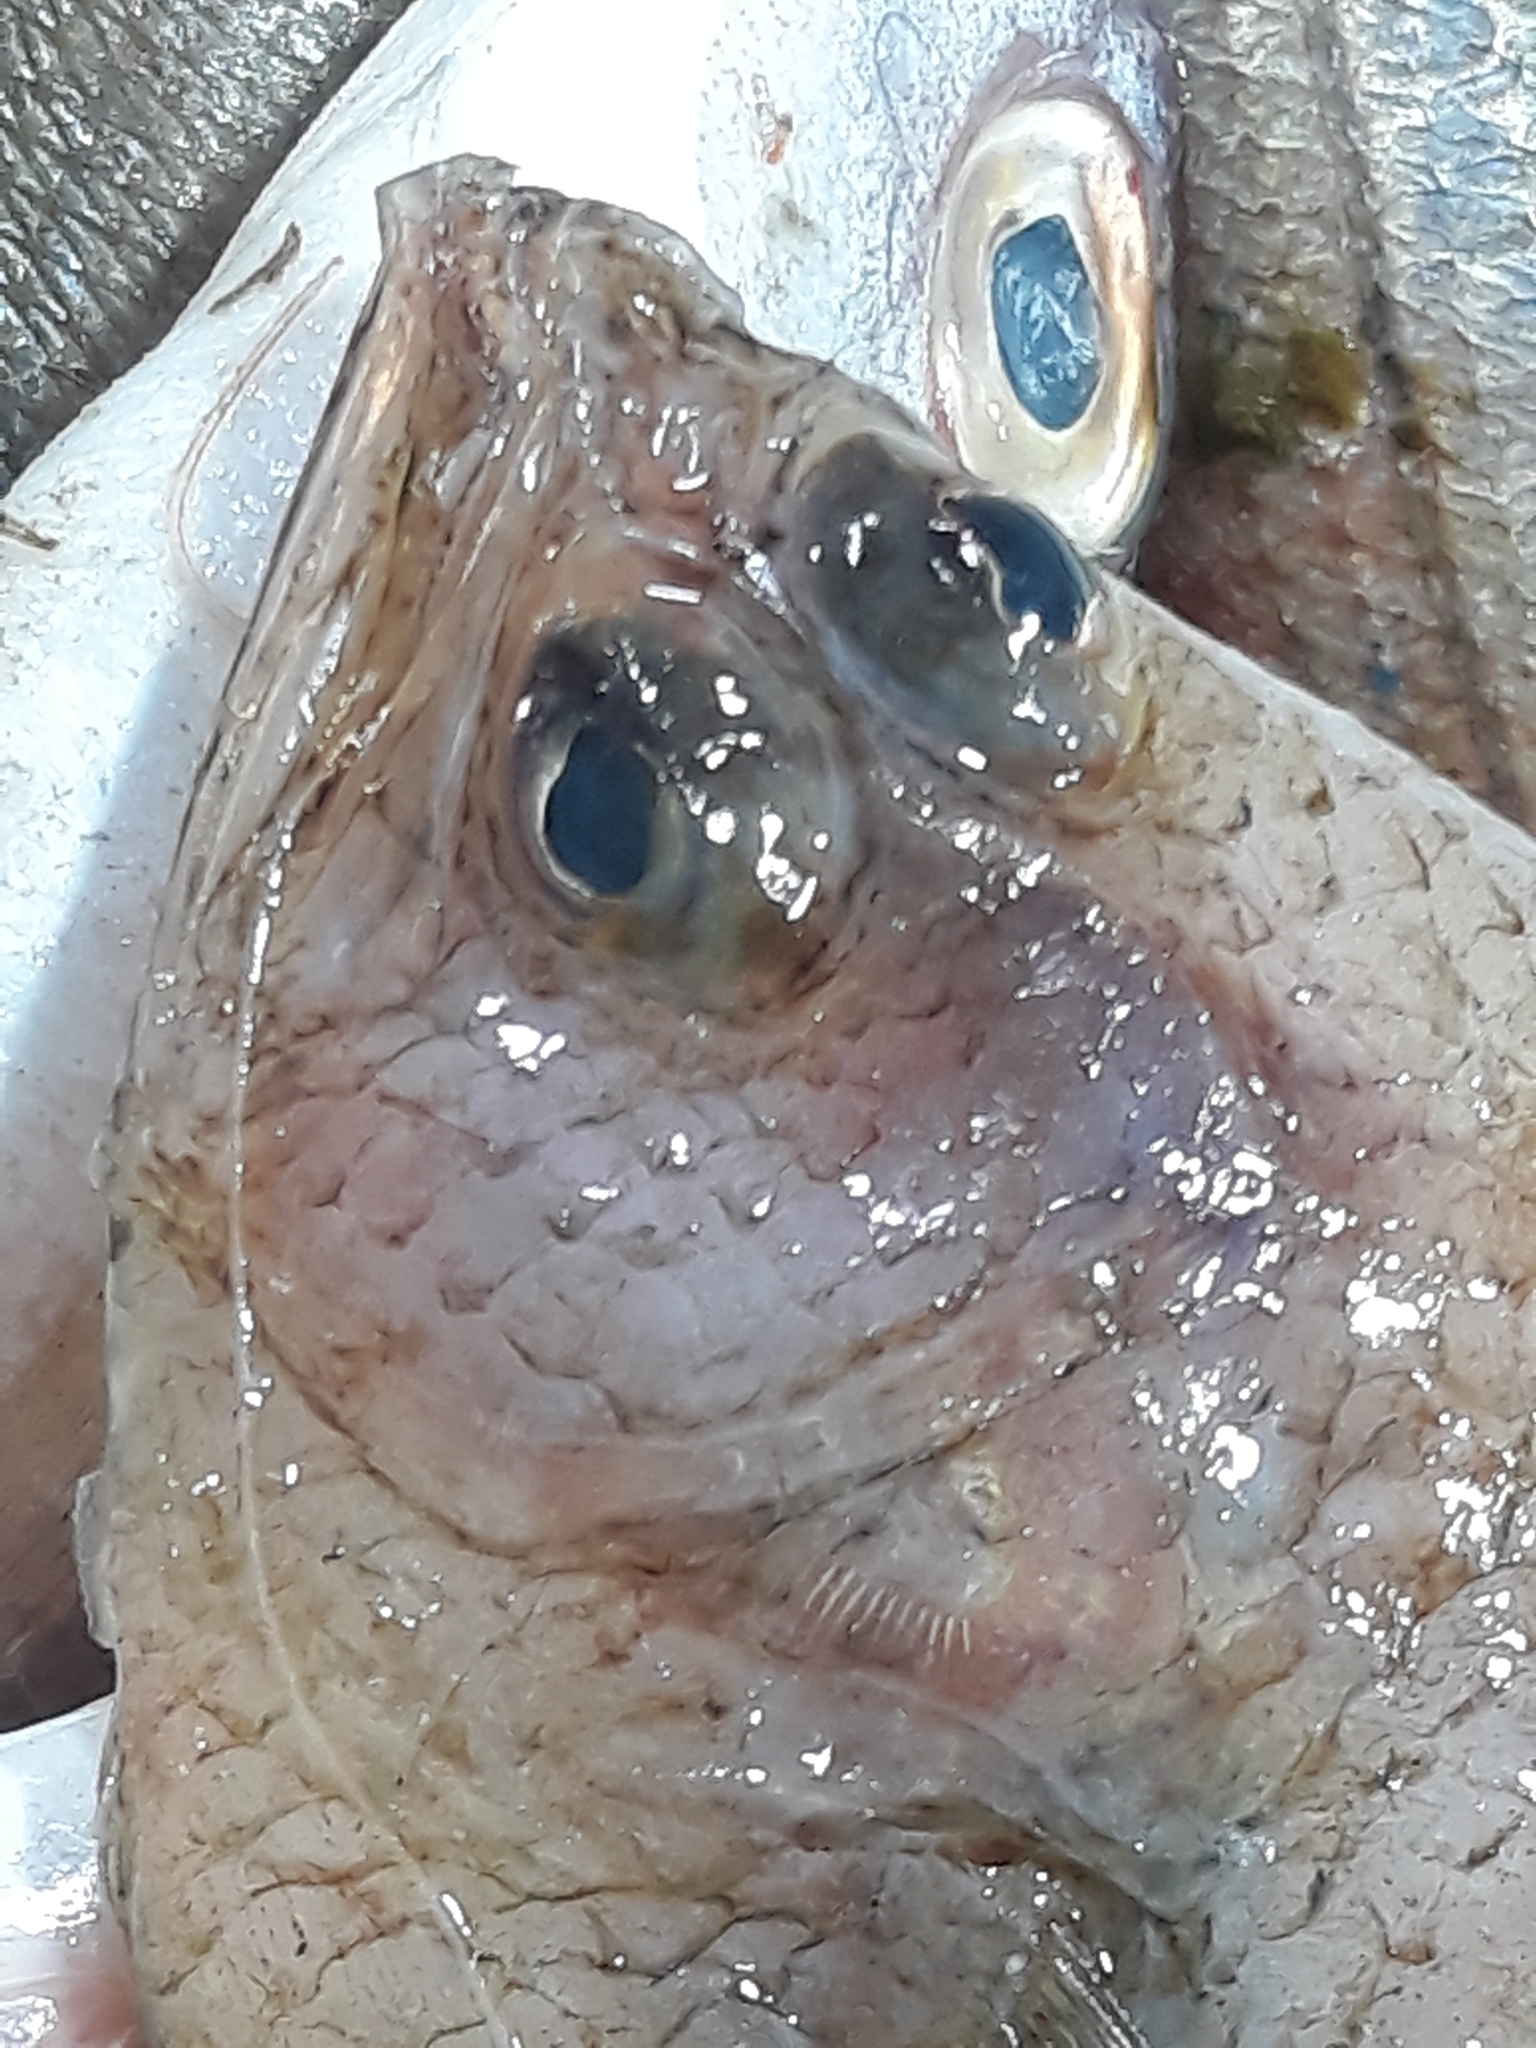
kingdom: Animalia
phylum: Chordata
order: Pleuronectiformes
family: Citharidae
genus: Citharus
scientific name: Citharus linguatula
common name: Atlantic spotted flounder
